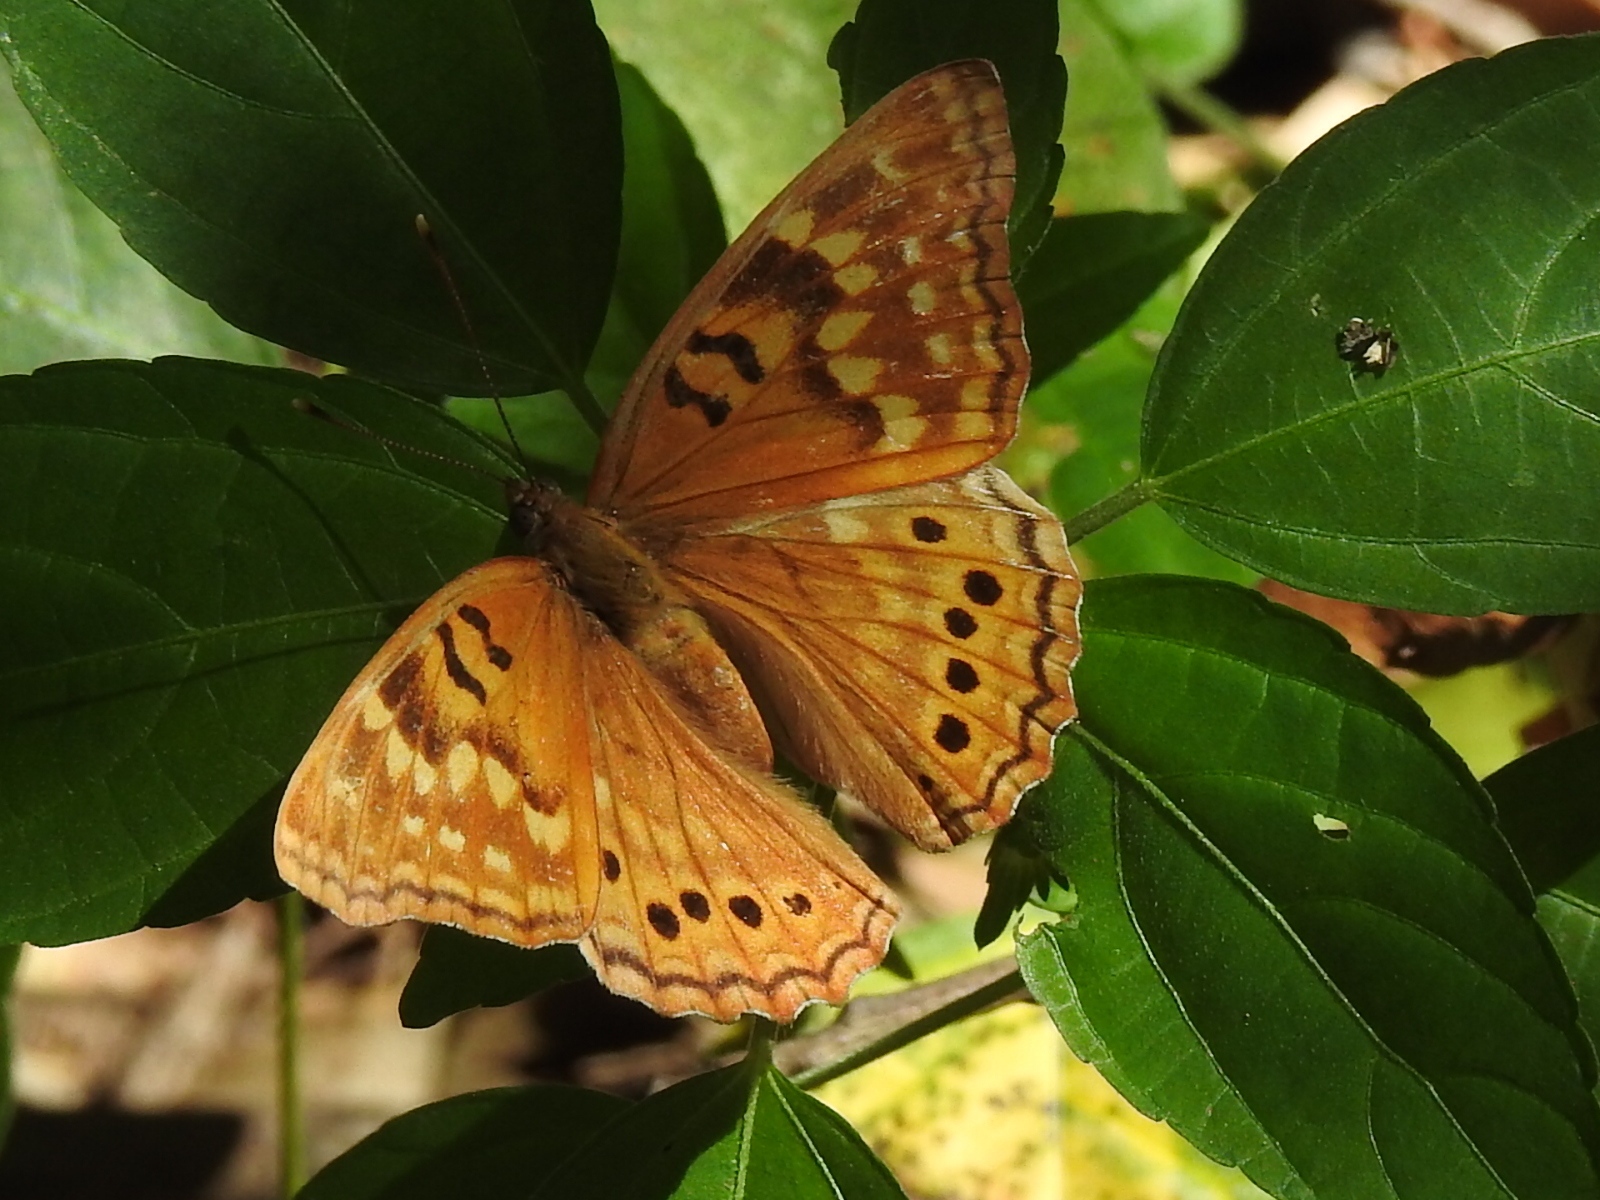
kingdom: Animalia
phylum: Arthropoda
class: Insecta
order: Lepidoptera
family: Nymphalidae
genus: Asterocampa
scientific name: Asterocampa clyton
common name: Tawny emperor
